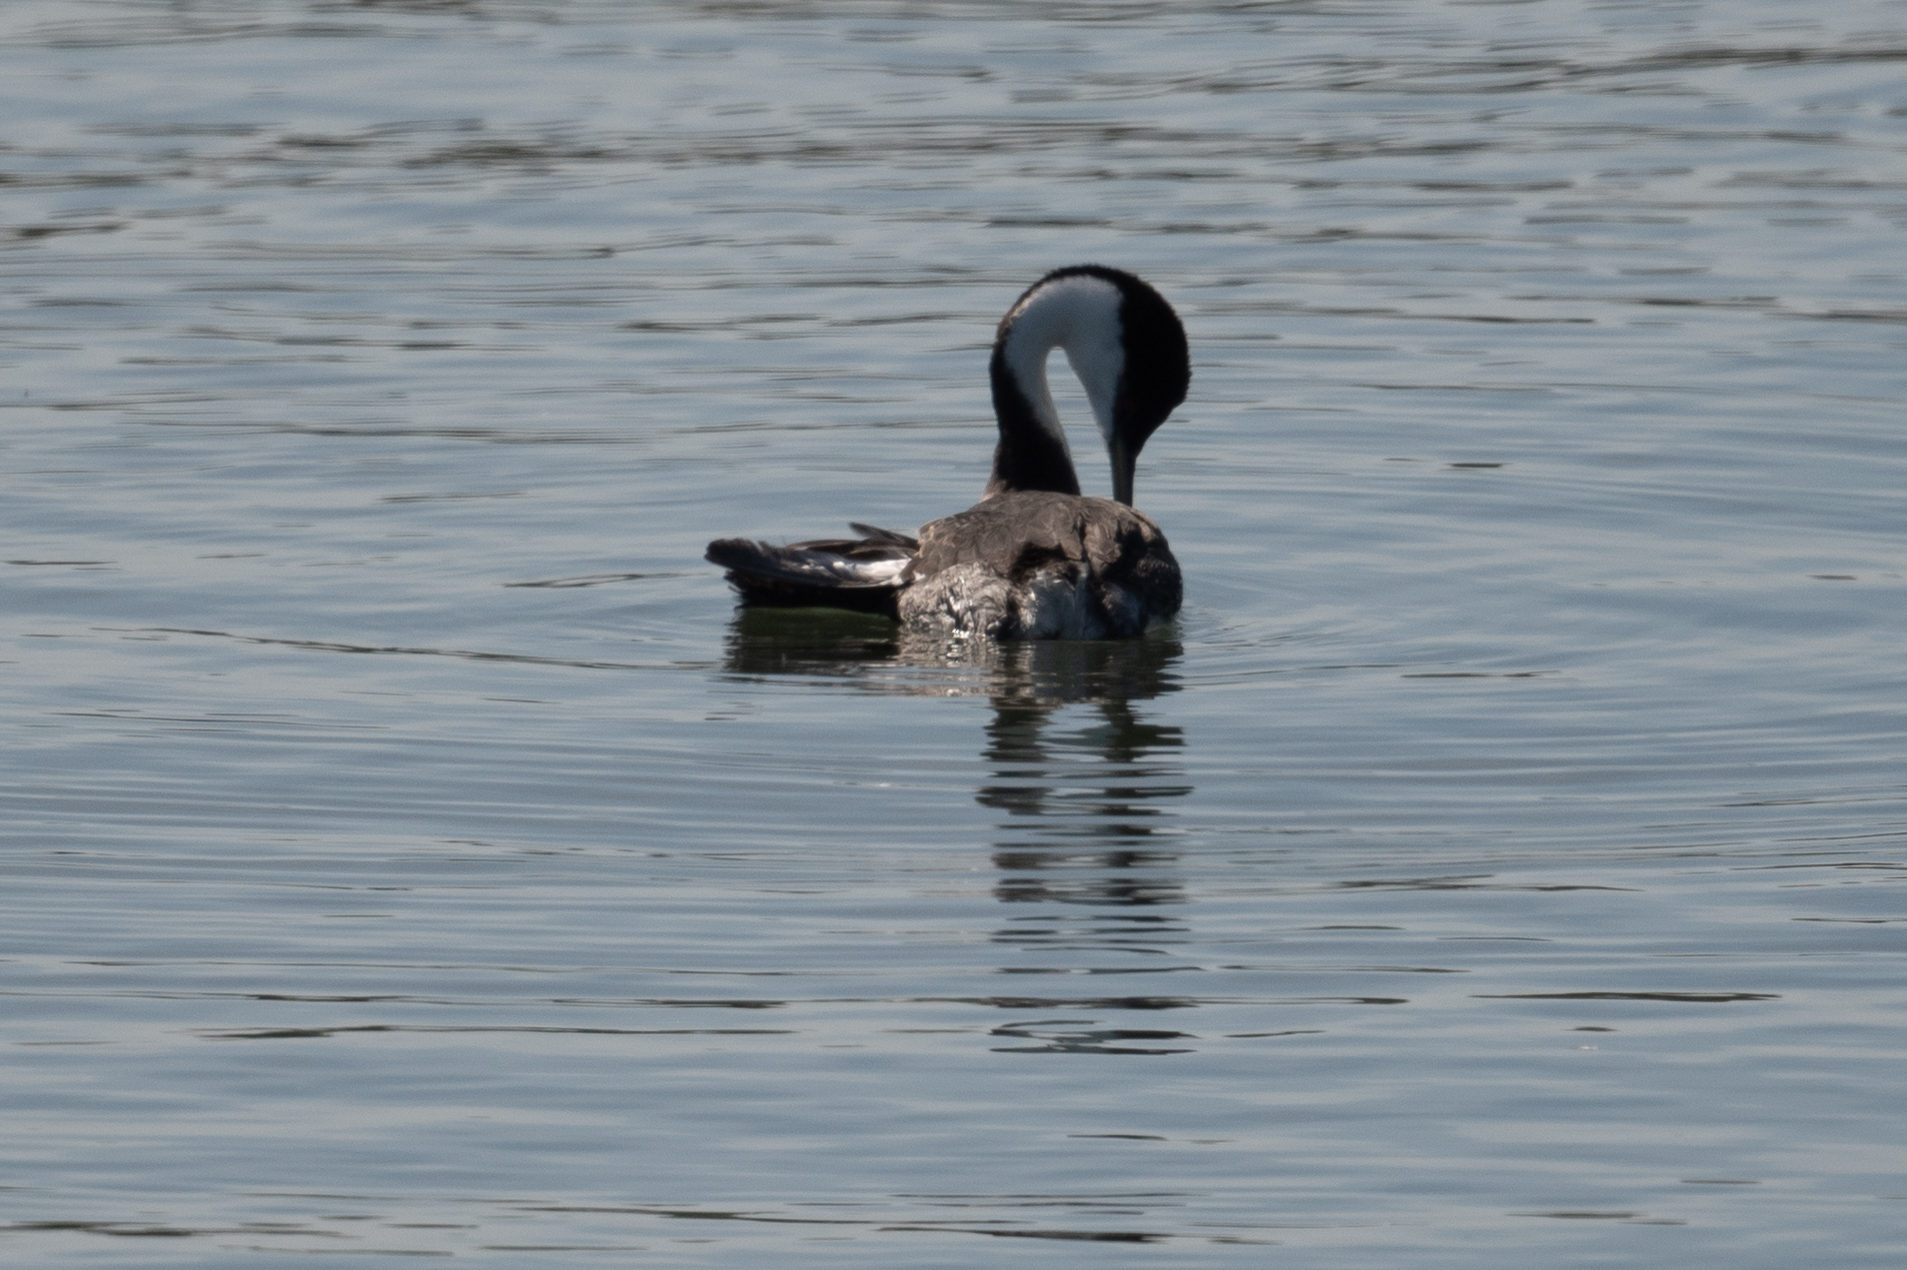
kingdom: Animalia
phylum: Chordata
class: Aves
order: Podicipediformes
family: Podicipedidae
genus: Aechmophorus
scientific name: Aechmophorus occidentalis
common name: Western grebe
